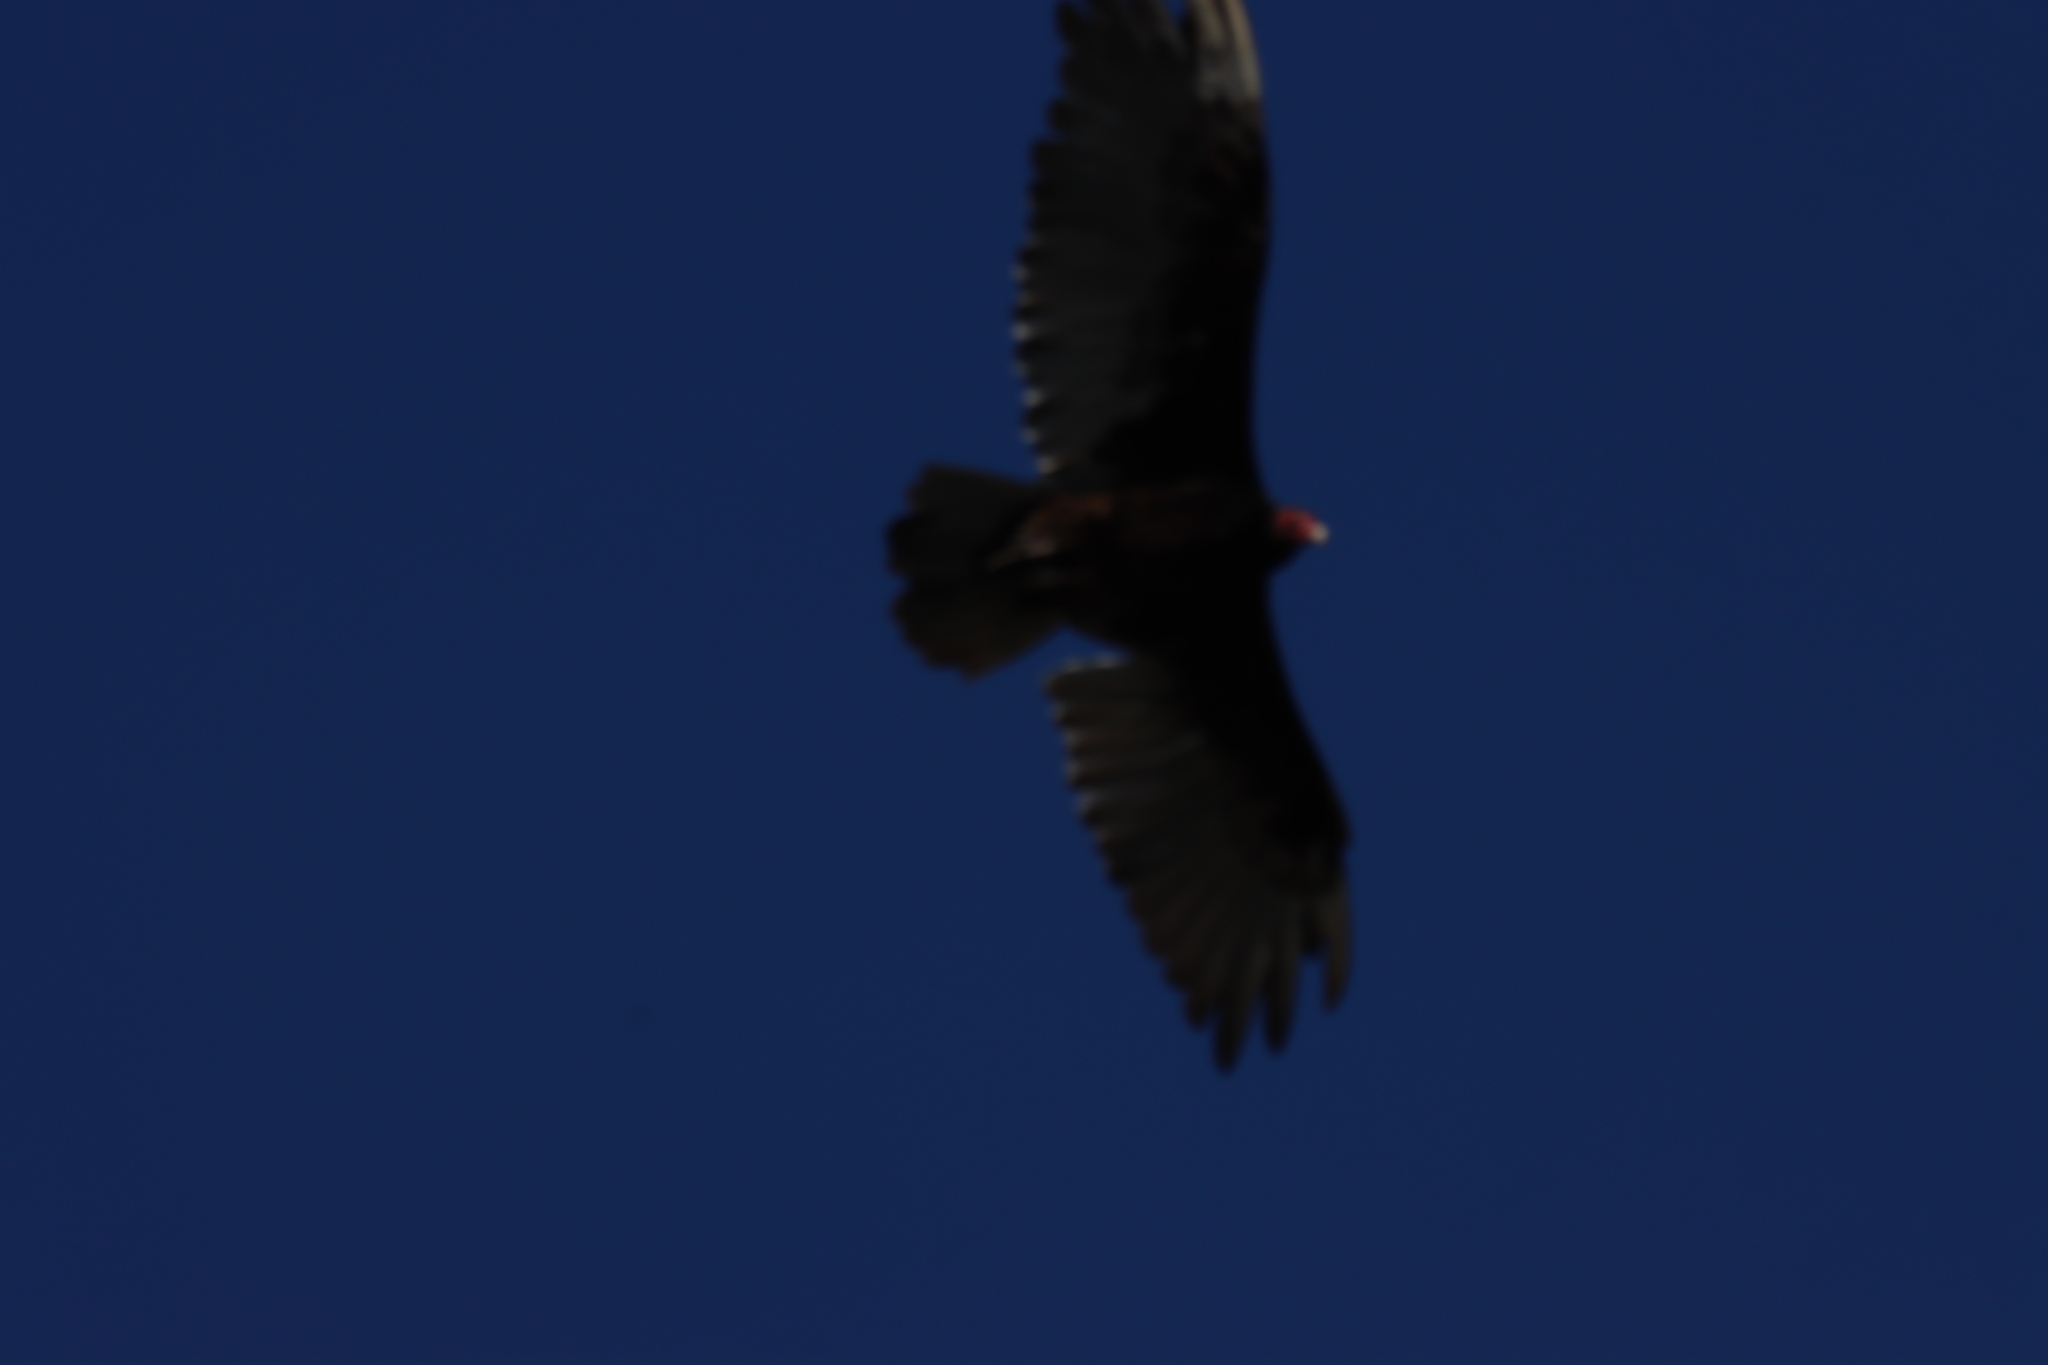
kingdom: Animalia
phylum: Chordata
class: Aves
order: Accipitriformes
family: Cathartidae
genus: Cathartes
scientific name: Cathartes aura
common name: Turkey vulture
